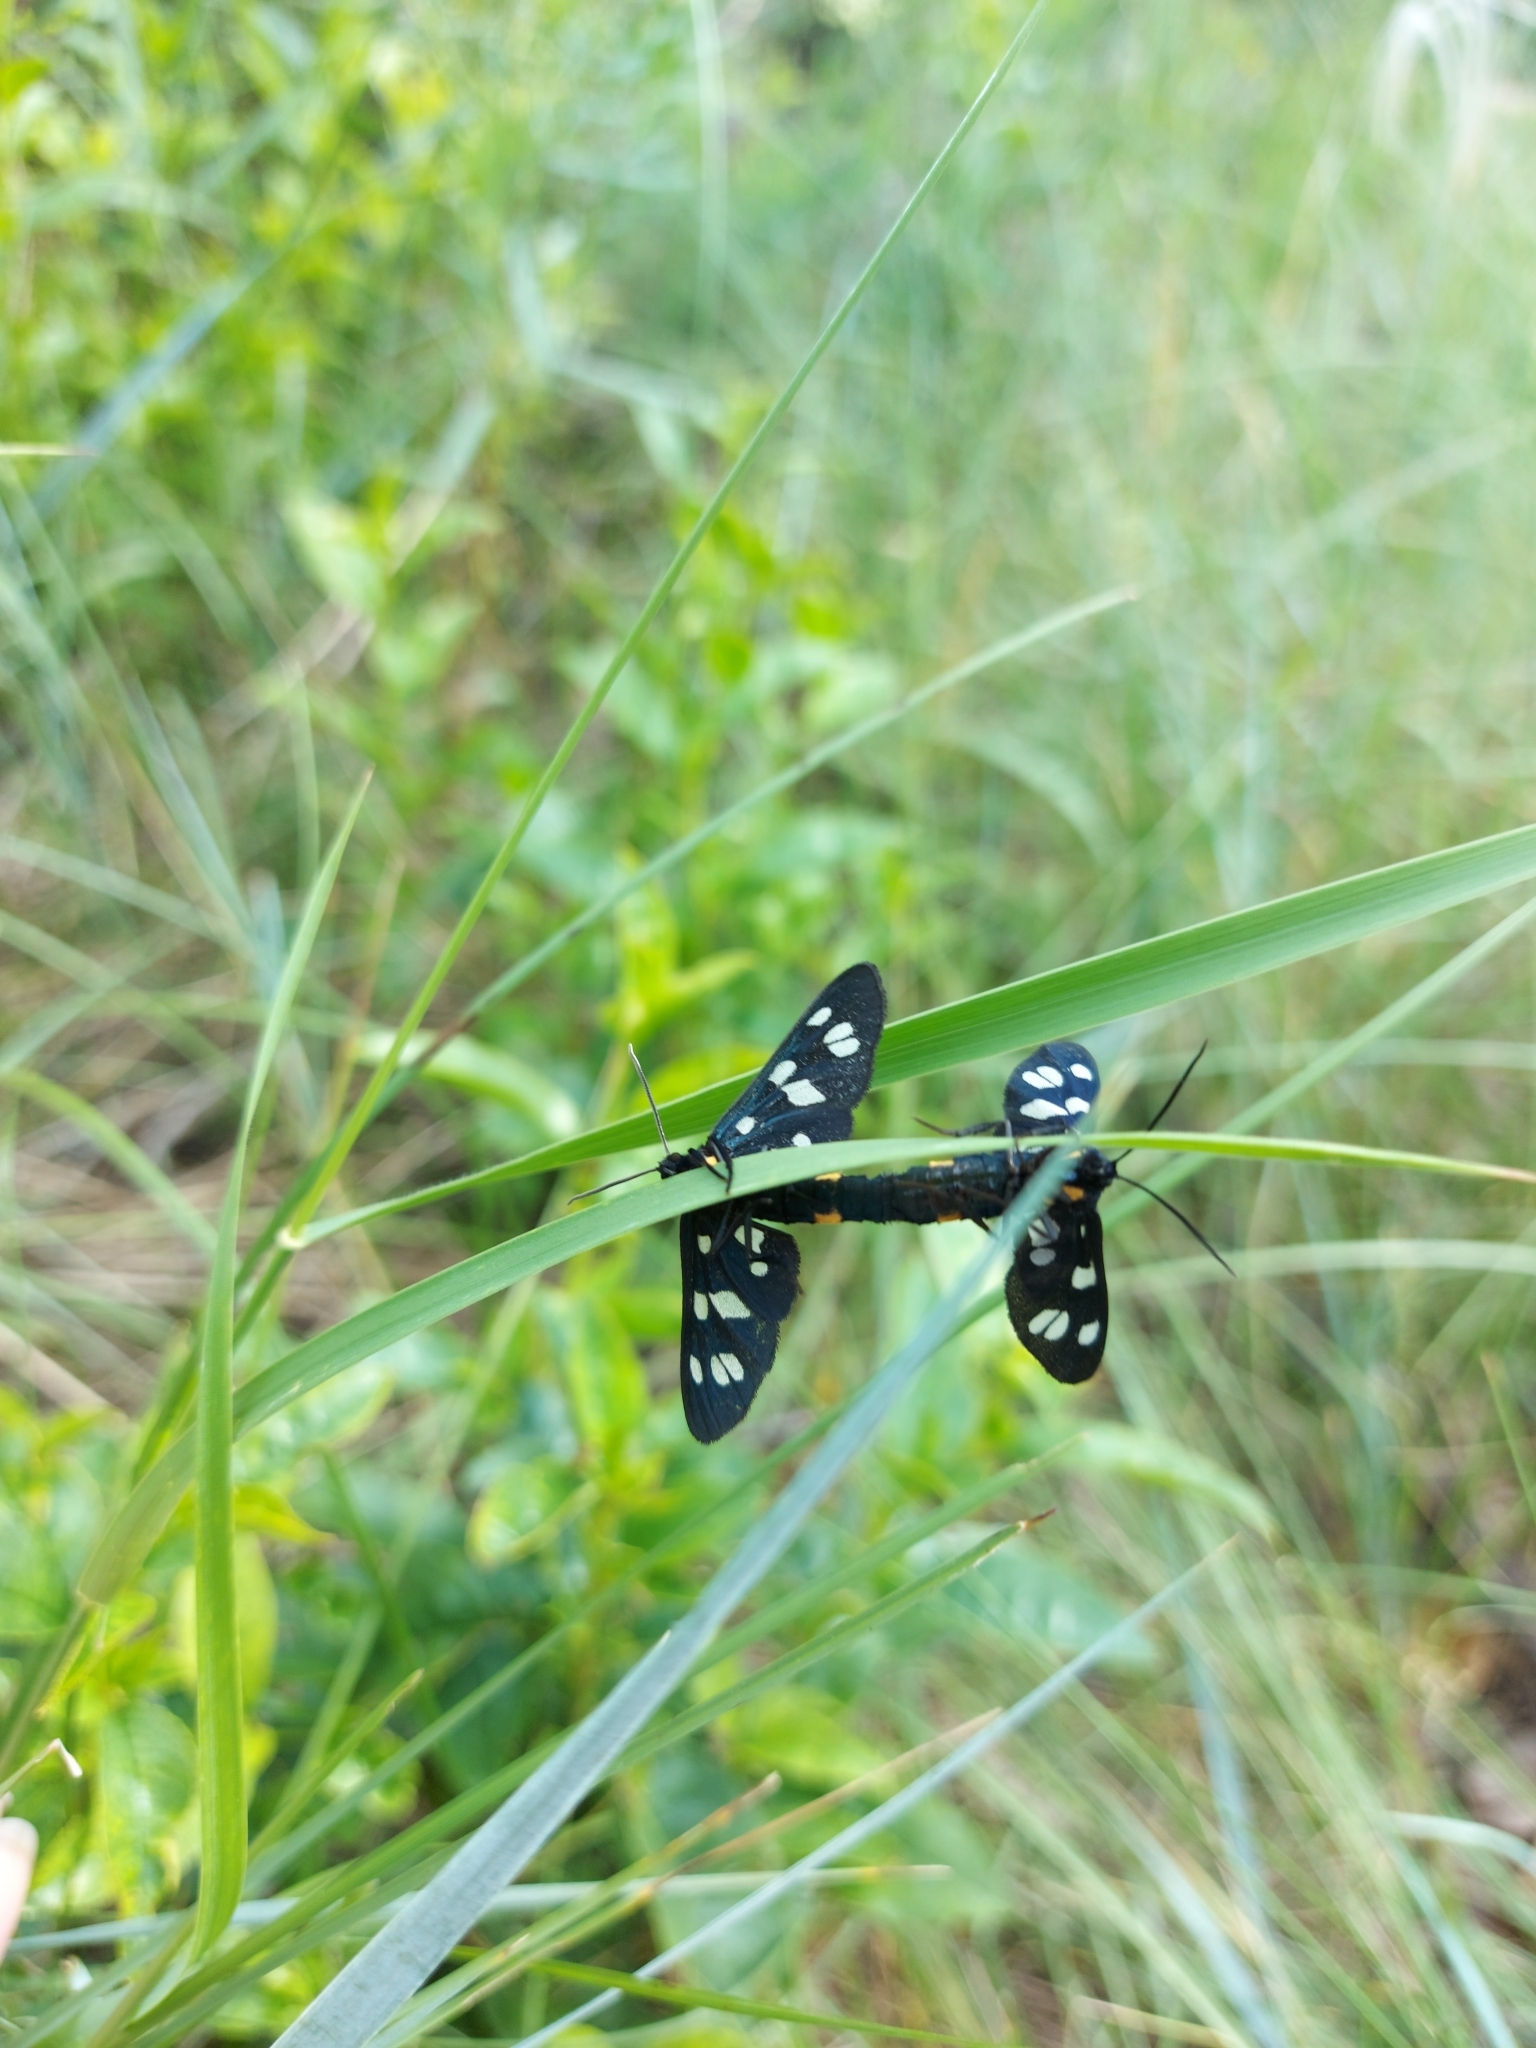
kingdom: Animalia
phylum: Arthropoda
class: Insecta
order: Lepidoptera
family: Erebidae
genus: Amata
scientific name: Amata nigricornis
